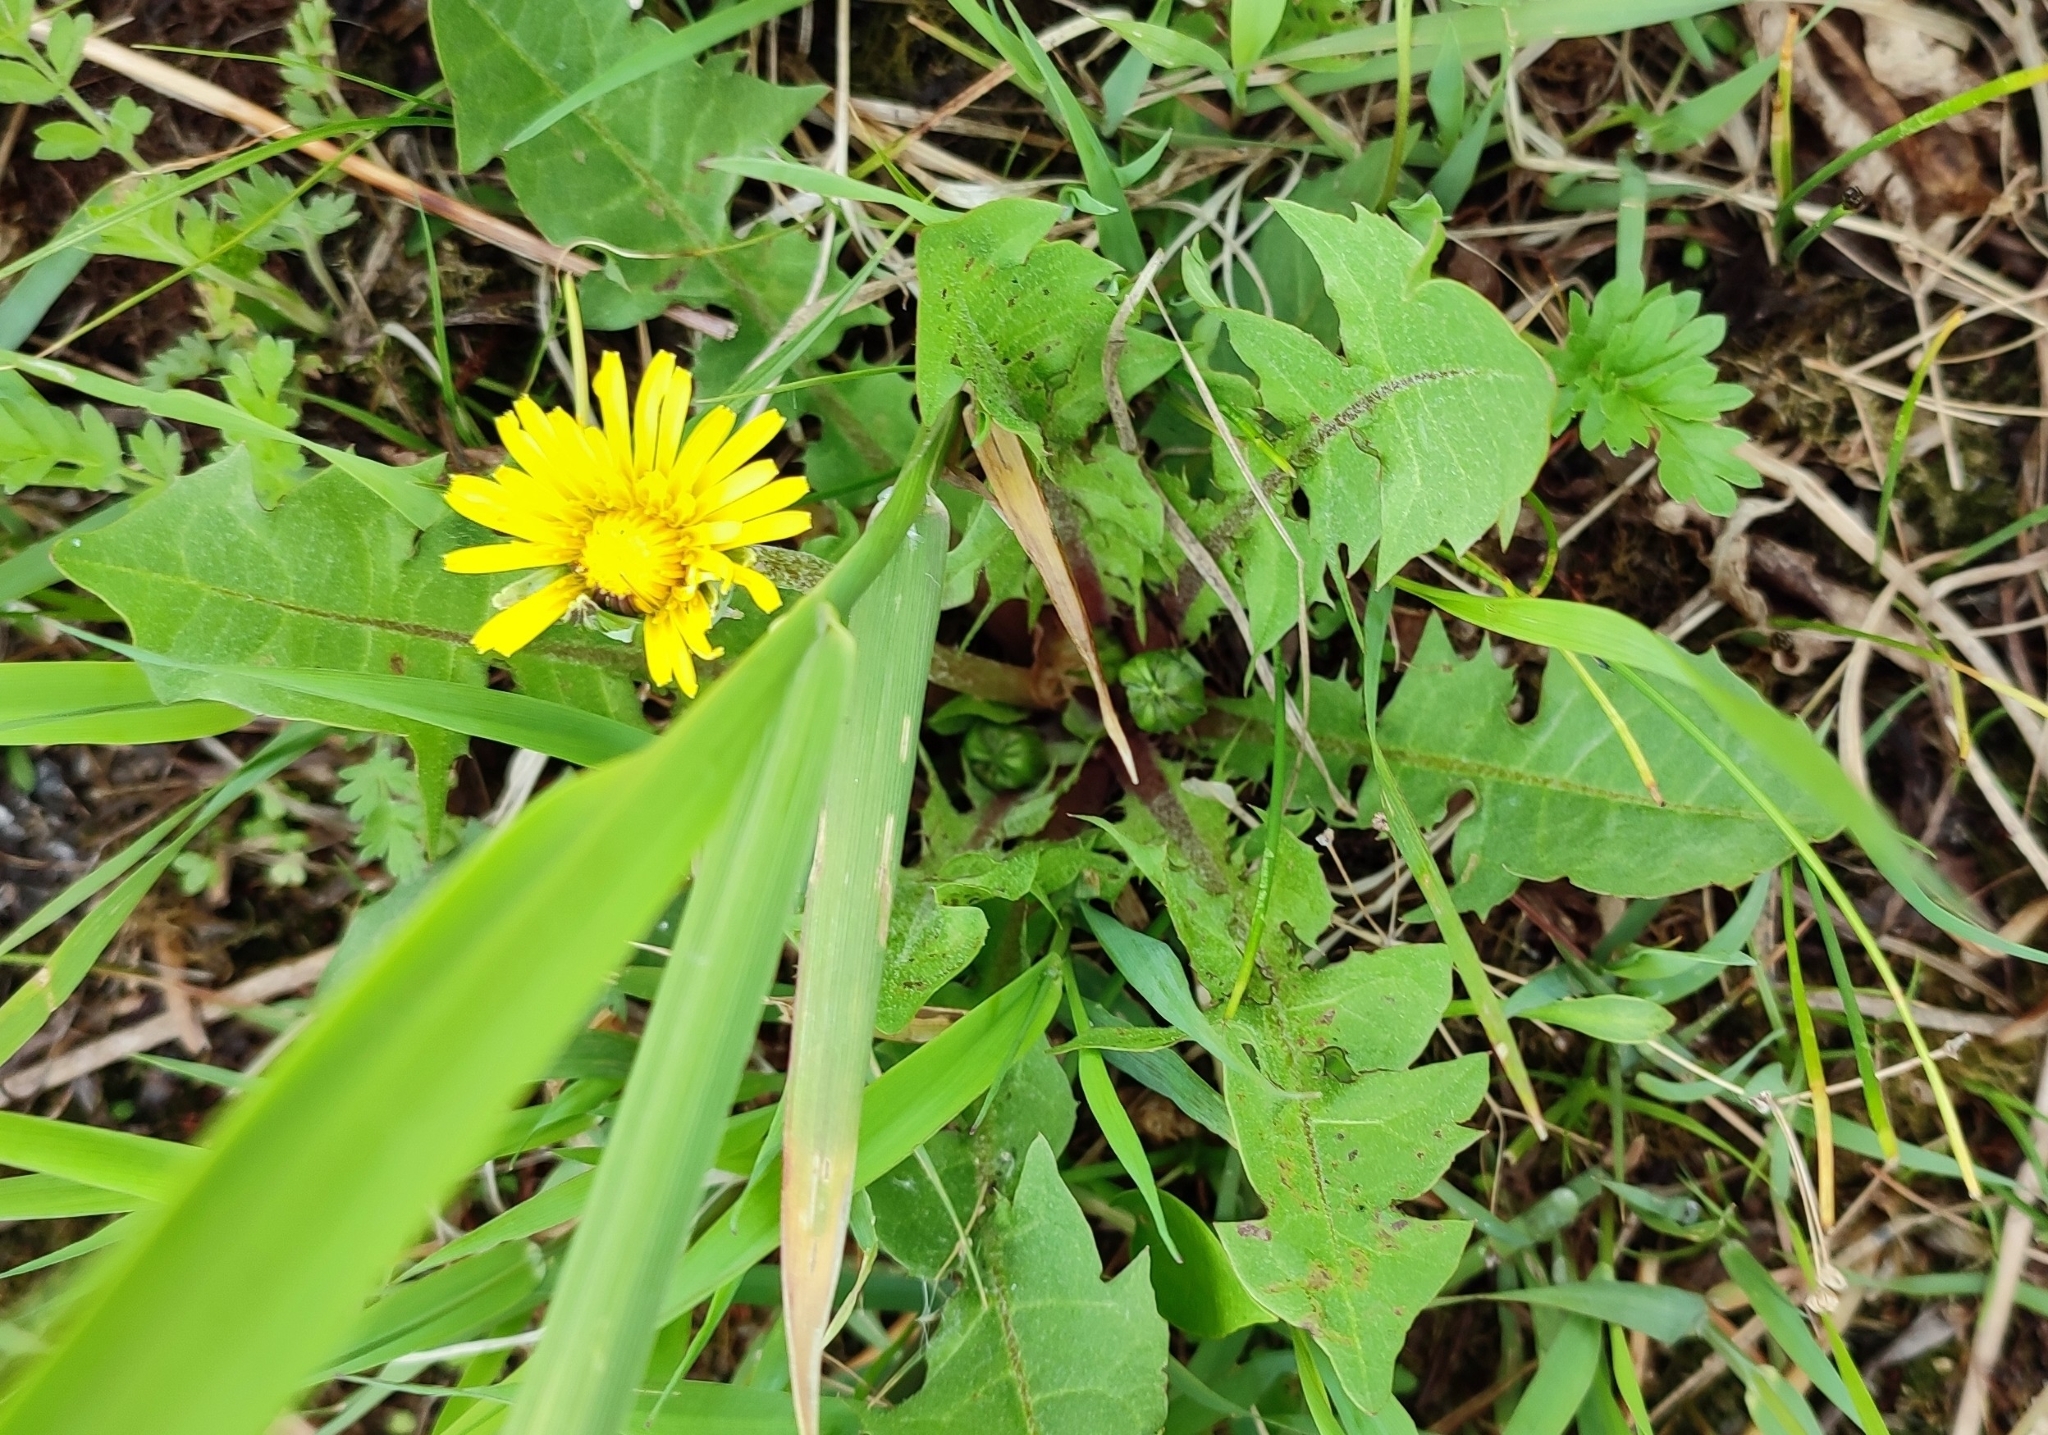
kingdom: Plantae
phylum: Tracheophyta
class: Magnoliopsida
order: Asterales
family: Asteraceae
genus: Taraxacum
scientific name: Taraxacum officinale
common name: Common dandelion
